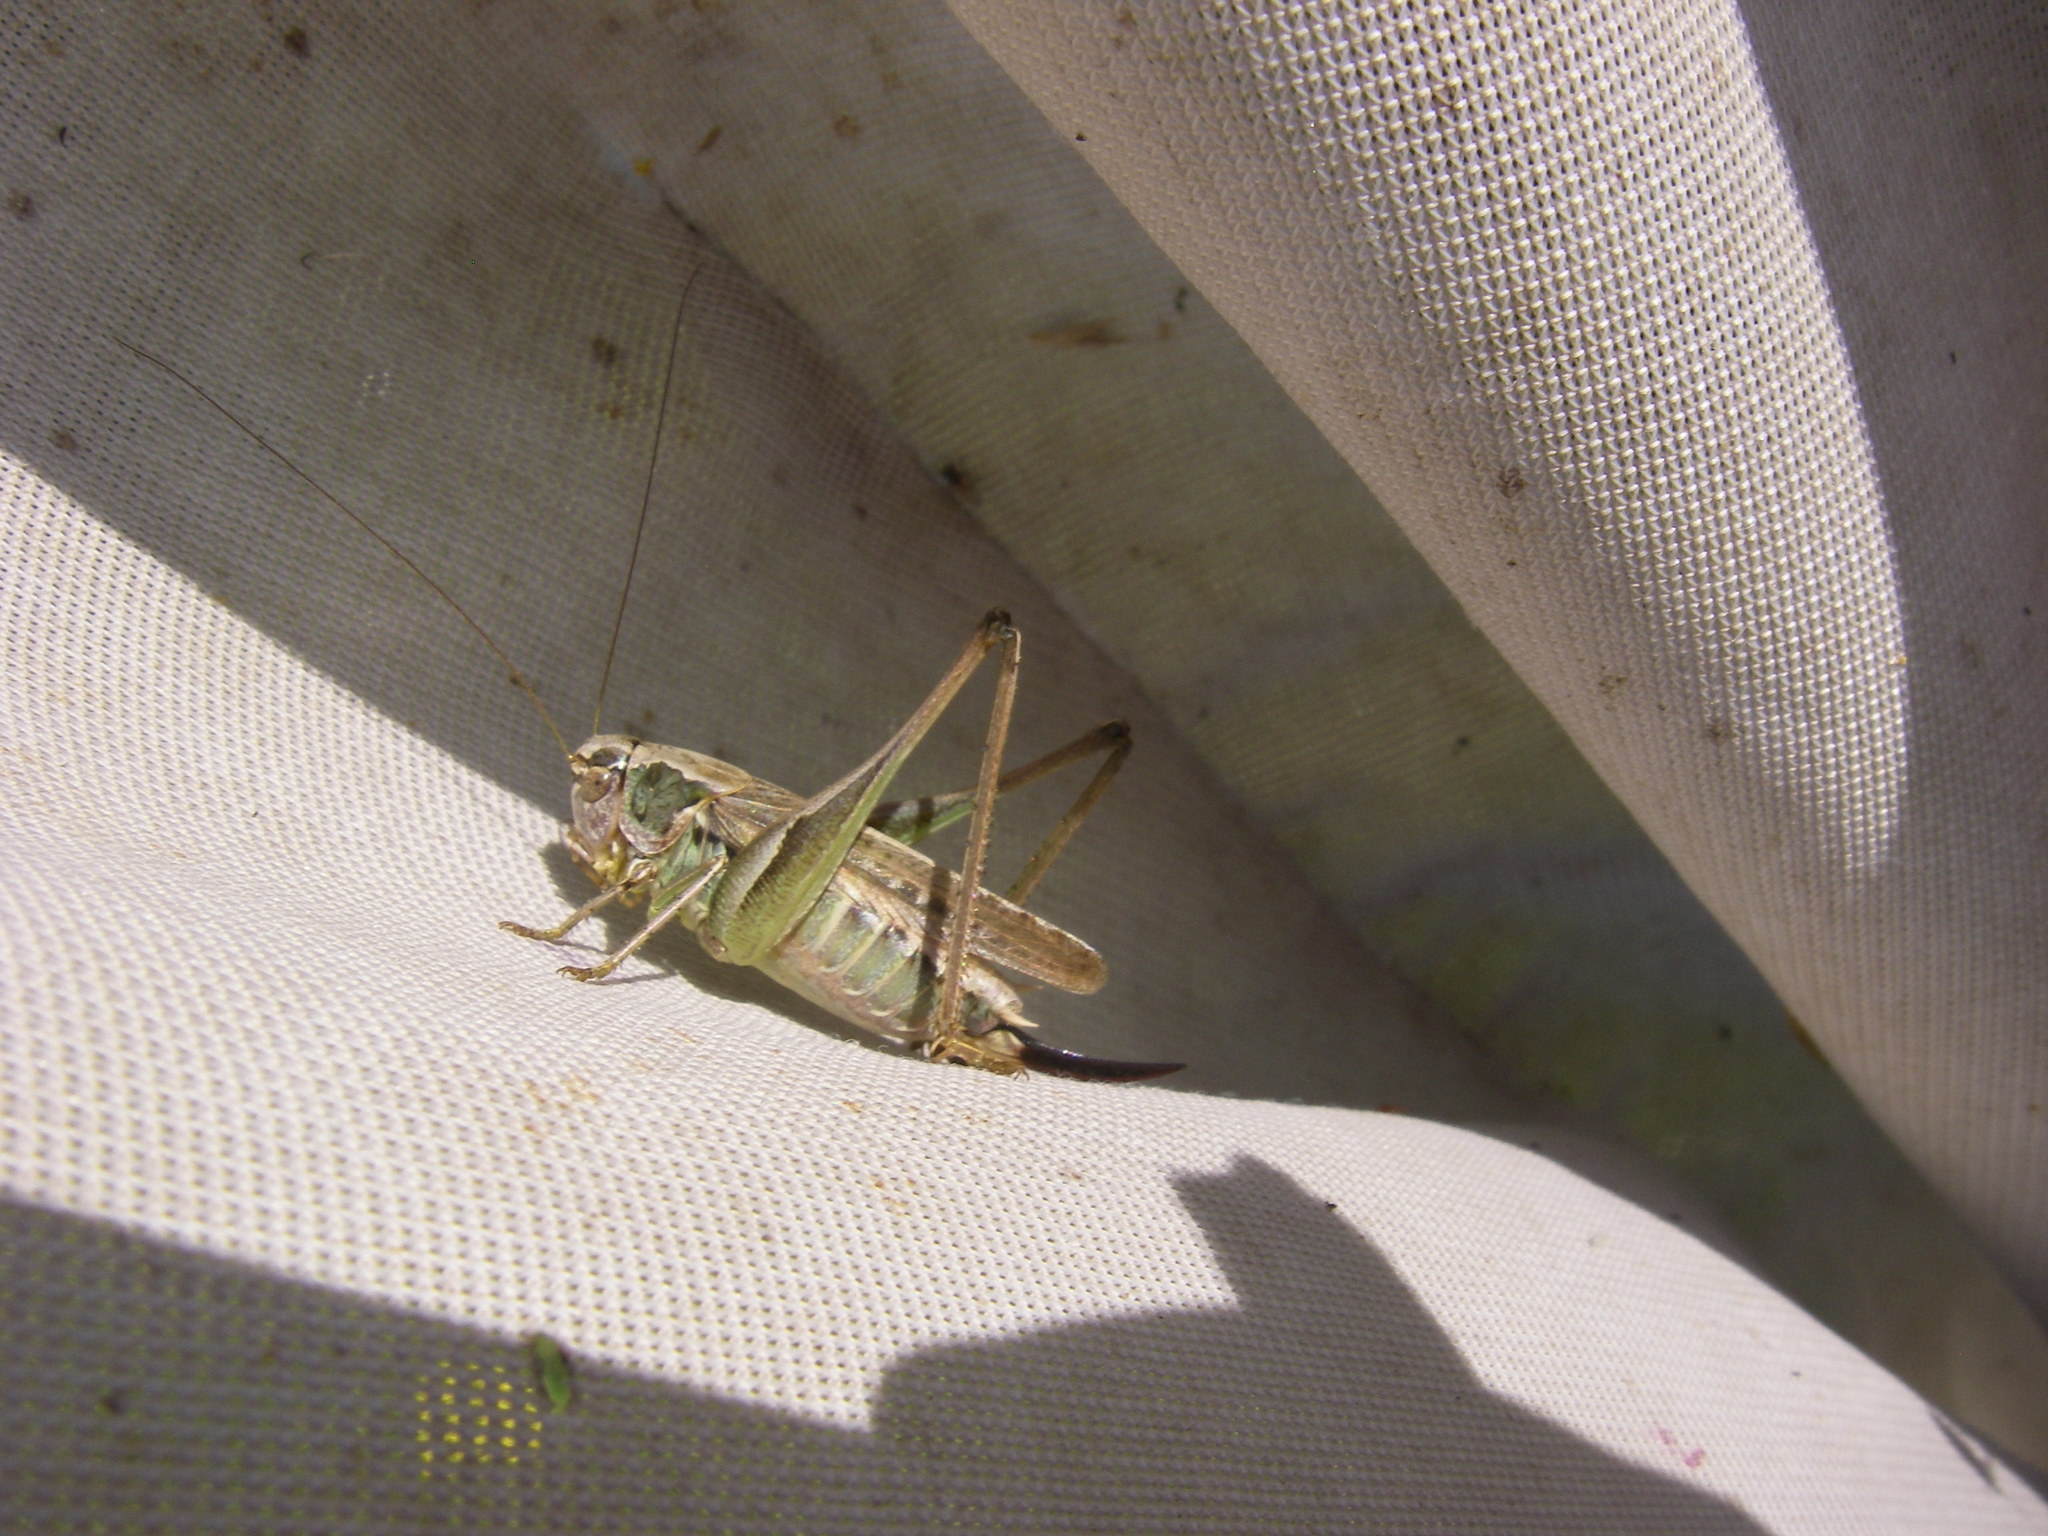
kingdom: Animalia
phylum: Arthropoda
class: Insecta
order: Orthoptera
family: Tettigoniidae
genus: Platycleis
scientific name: Platycleis albopunctata
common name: Grey bush-cricket
